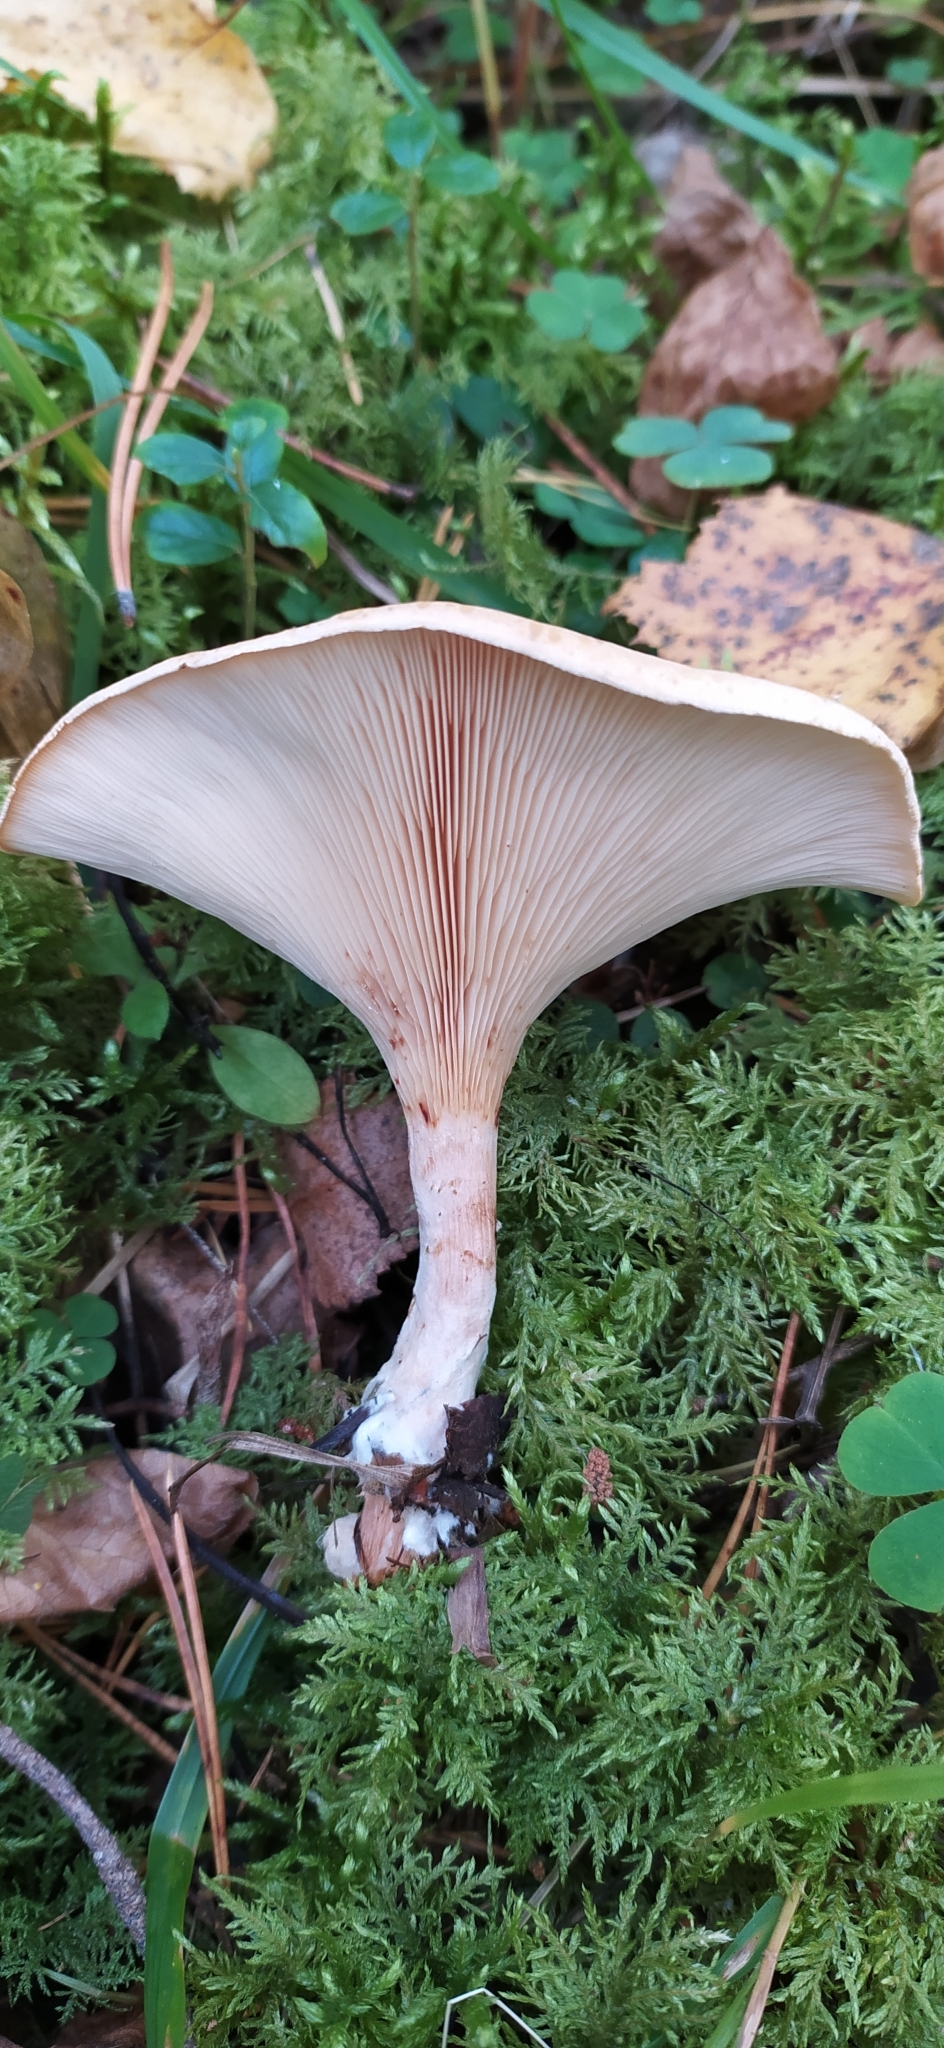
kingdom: Fungi
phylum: Basidiomycota
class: Agaricomycetes
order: Agaricales
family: Tricholomataceae
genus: Infundibulicybe
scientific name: Infundibulicybe gibba
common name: Common funnel
